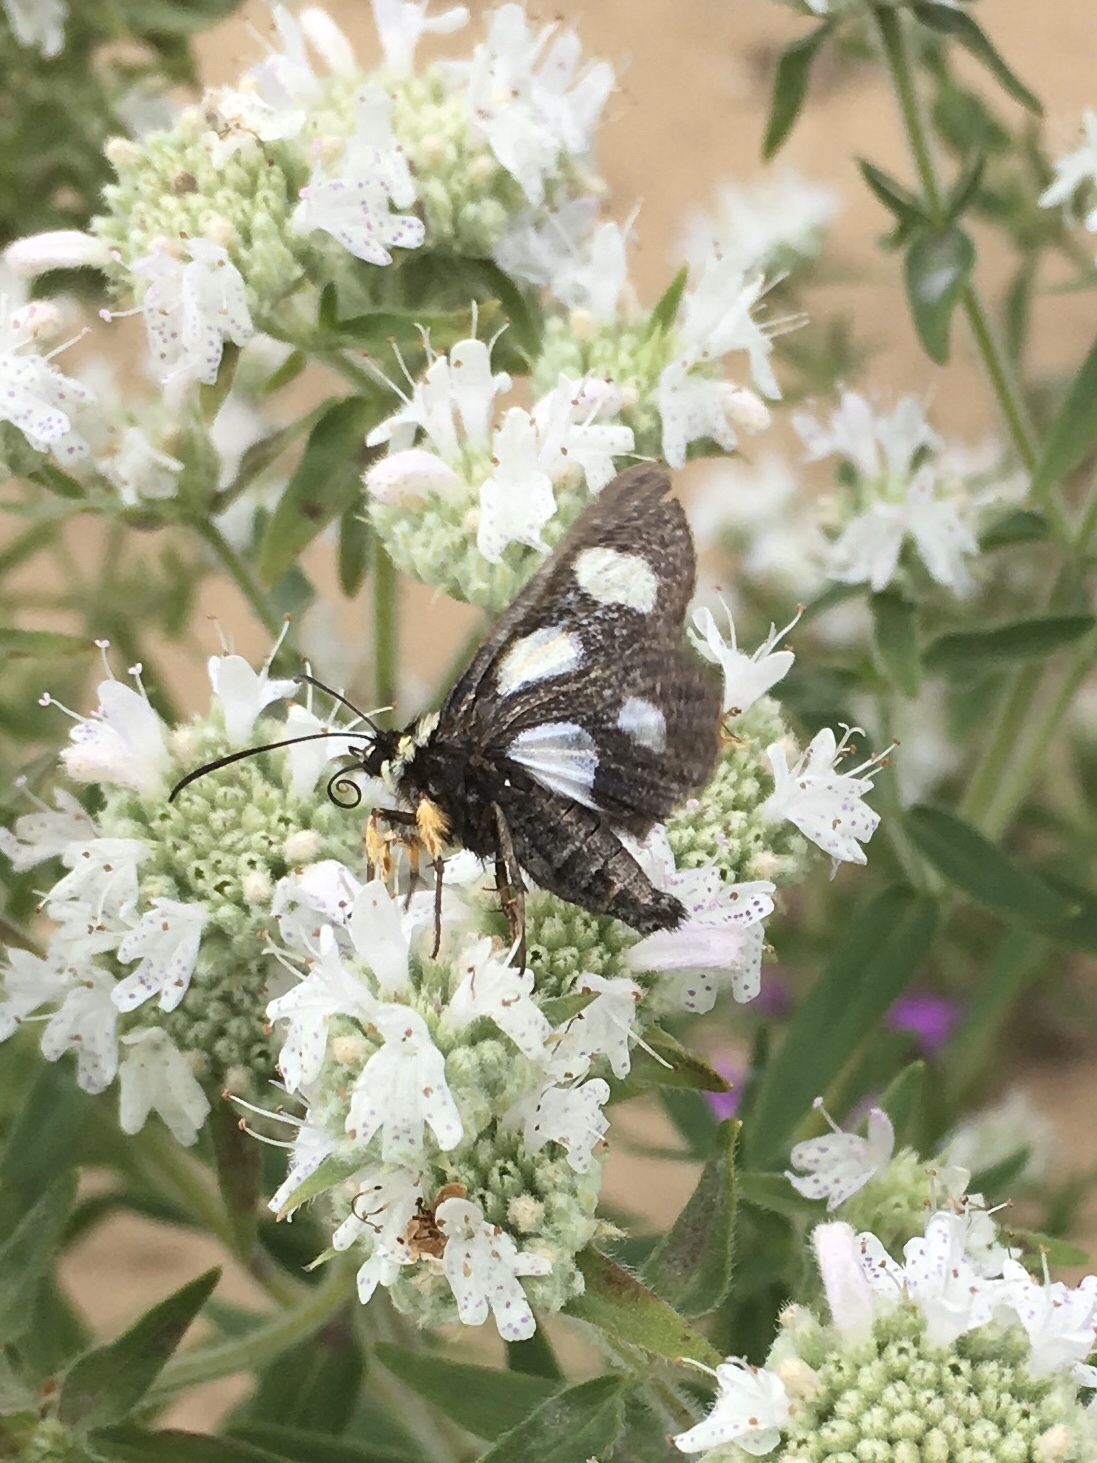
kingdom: Animalia
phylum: Arthropoda
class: Insecta
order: Lepidoptera
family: Noctuidae
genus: Alypia
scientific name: Alypia octomaculata
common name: Eight-spotted forester
